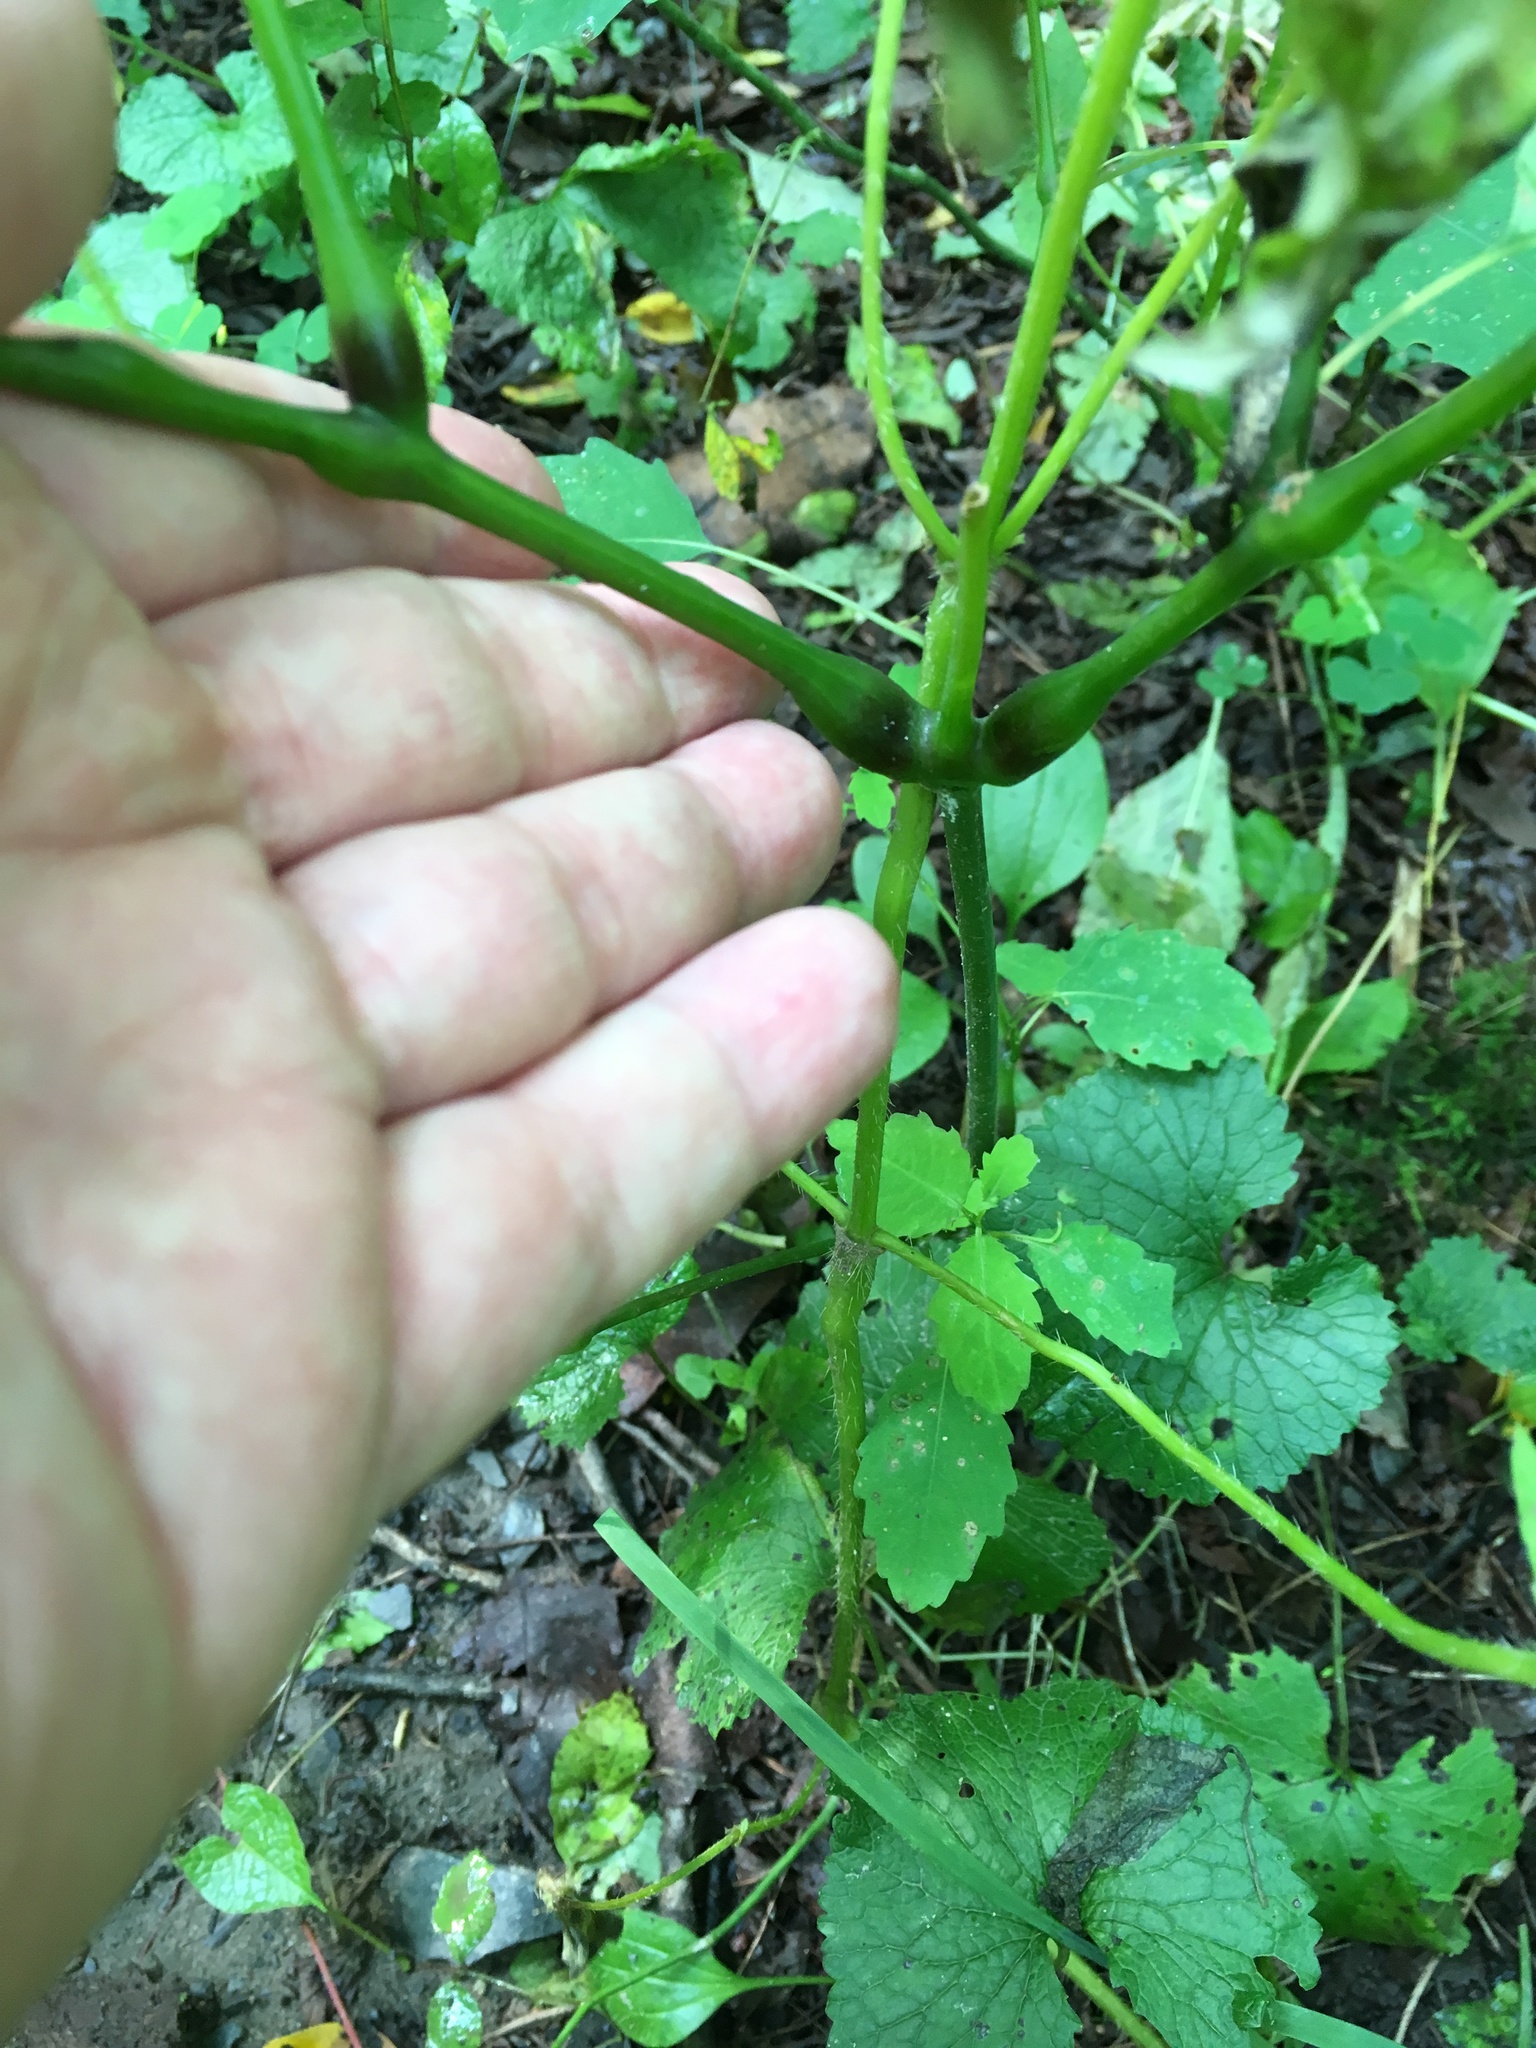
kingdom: Plantae
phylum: Tracheophyta
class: Magnoliopsida
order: Ericales
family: Balsaminaceae
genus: Impatiens
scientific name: Impatiens pallida
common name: Pale snapweed
